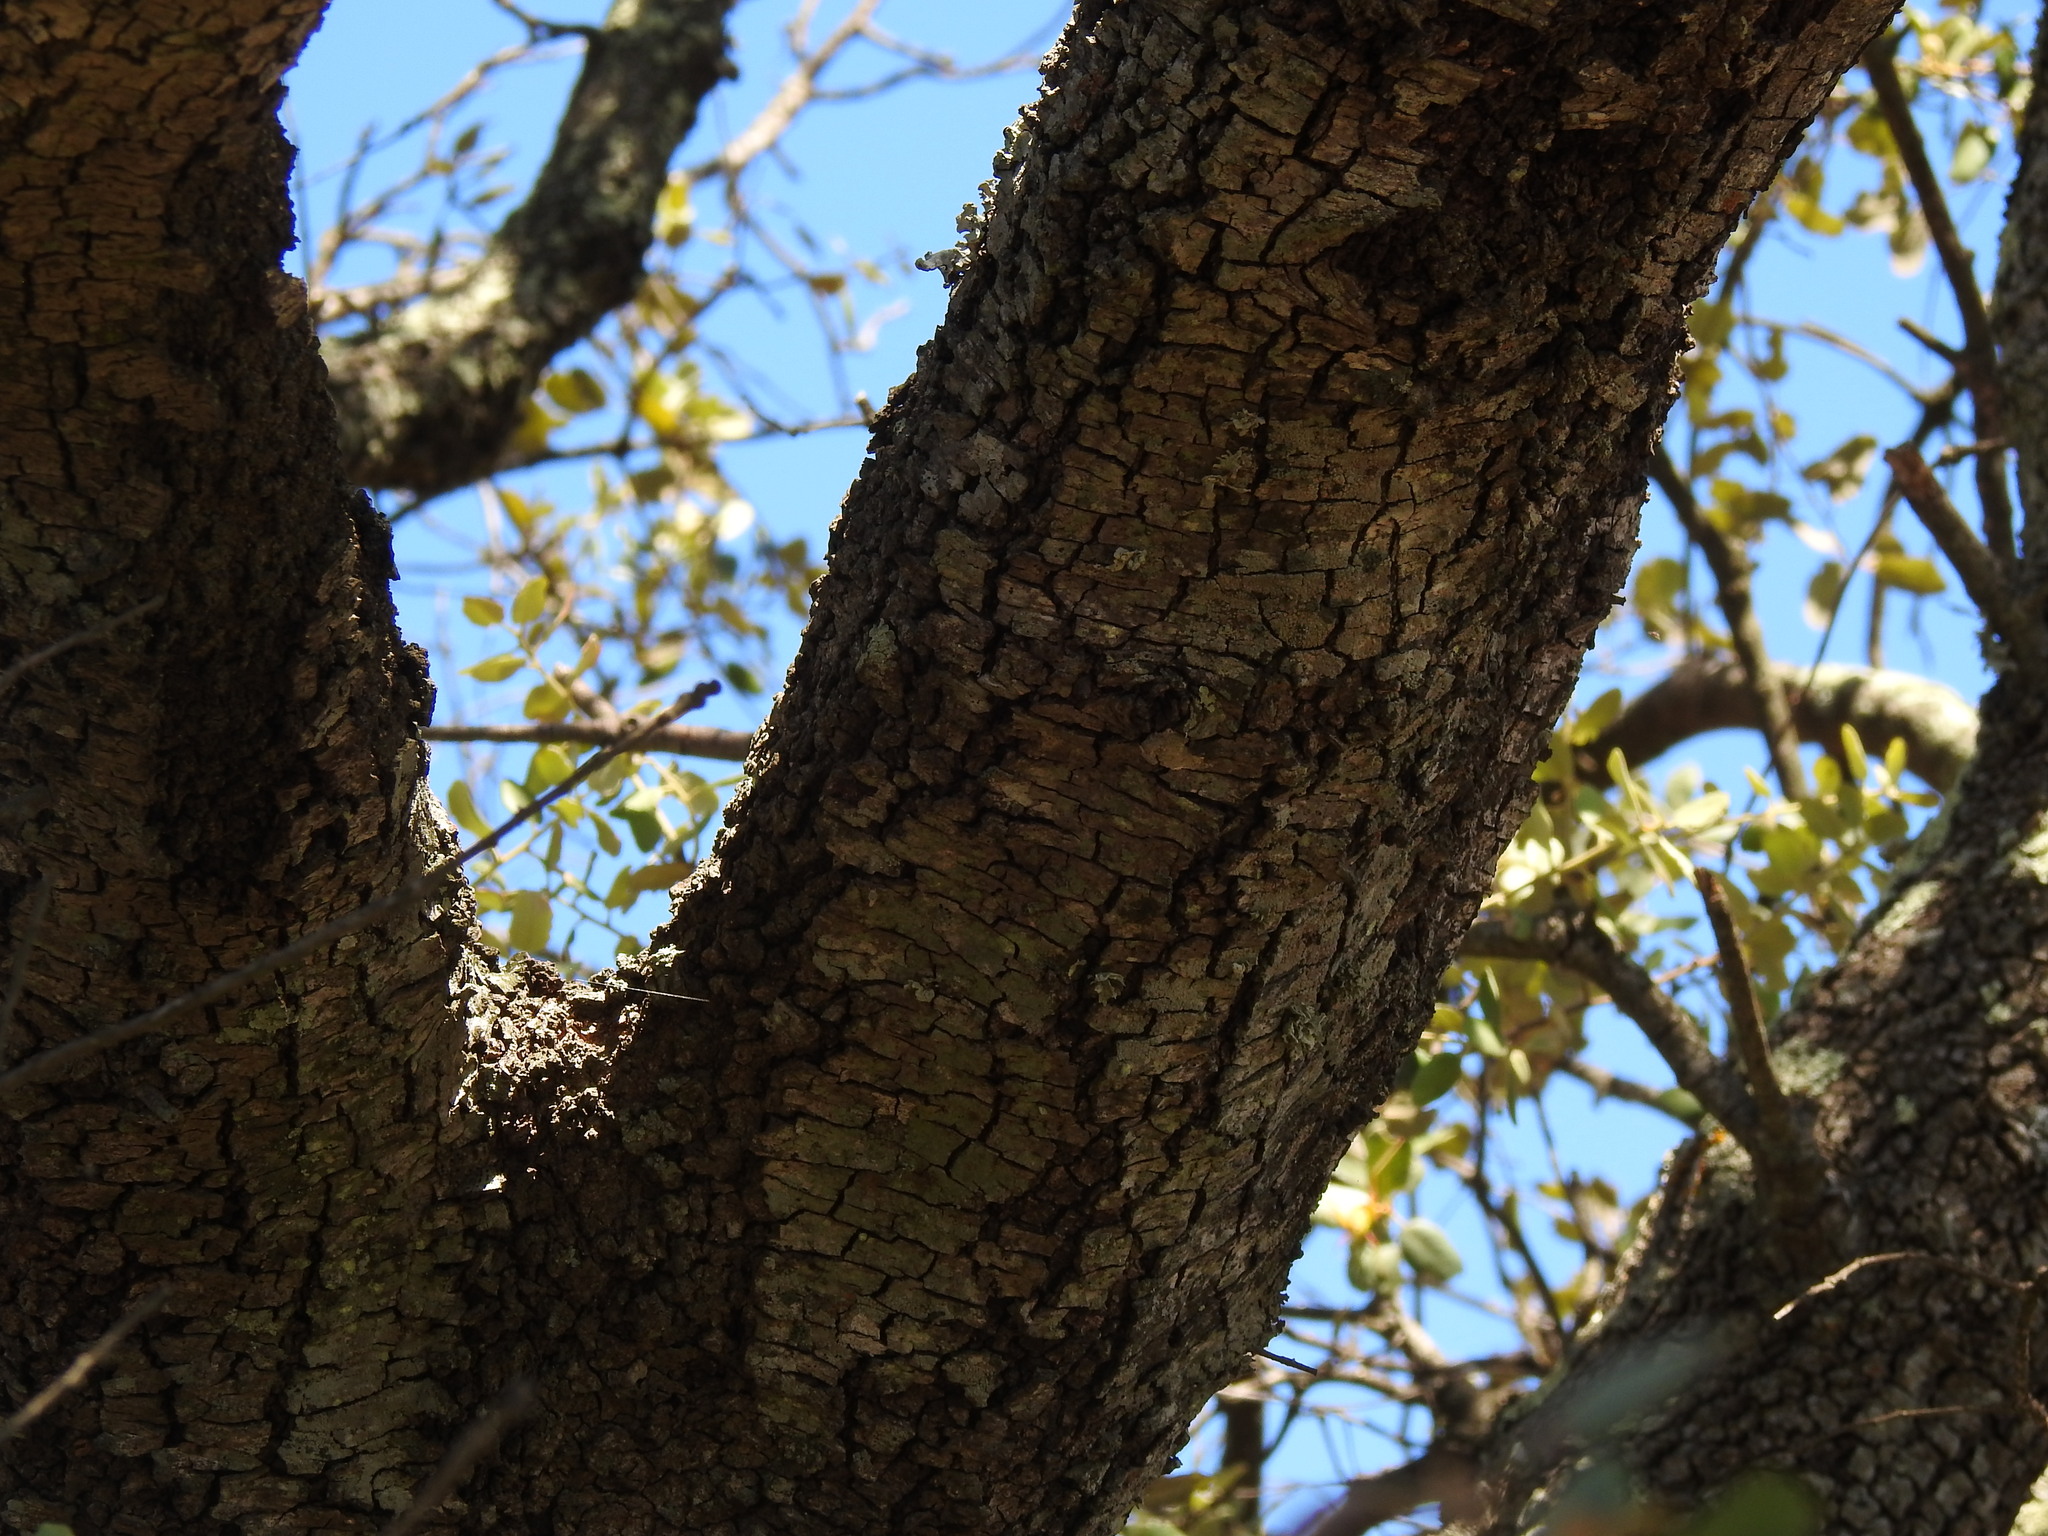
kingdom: Plantae
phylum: Tracheophyta
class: Magnoliopsida
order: Fagales
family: Fagaceae
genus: Quercus
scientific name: Quercus rotundifolia
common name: Holm oak
